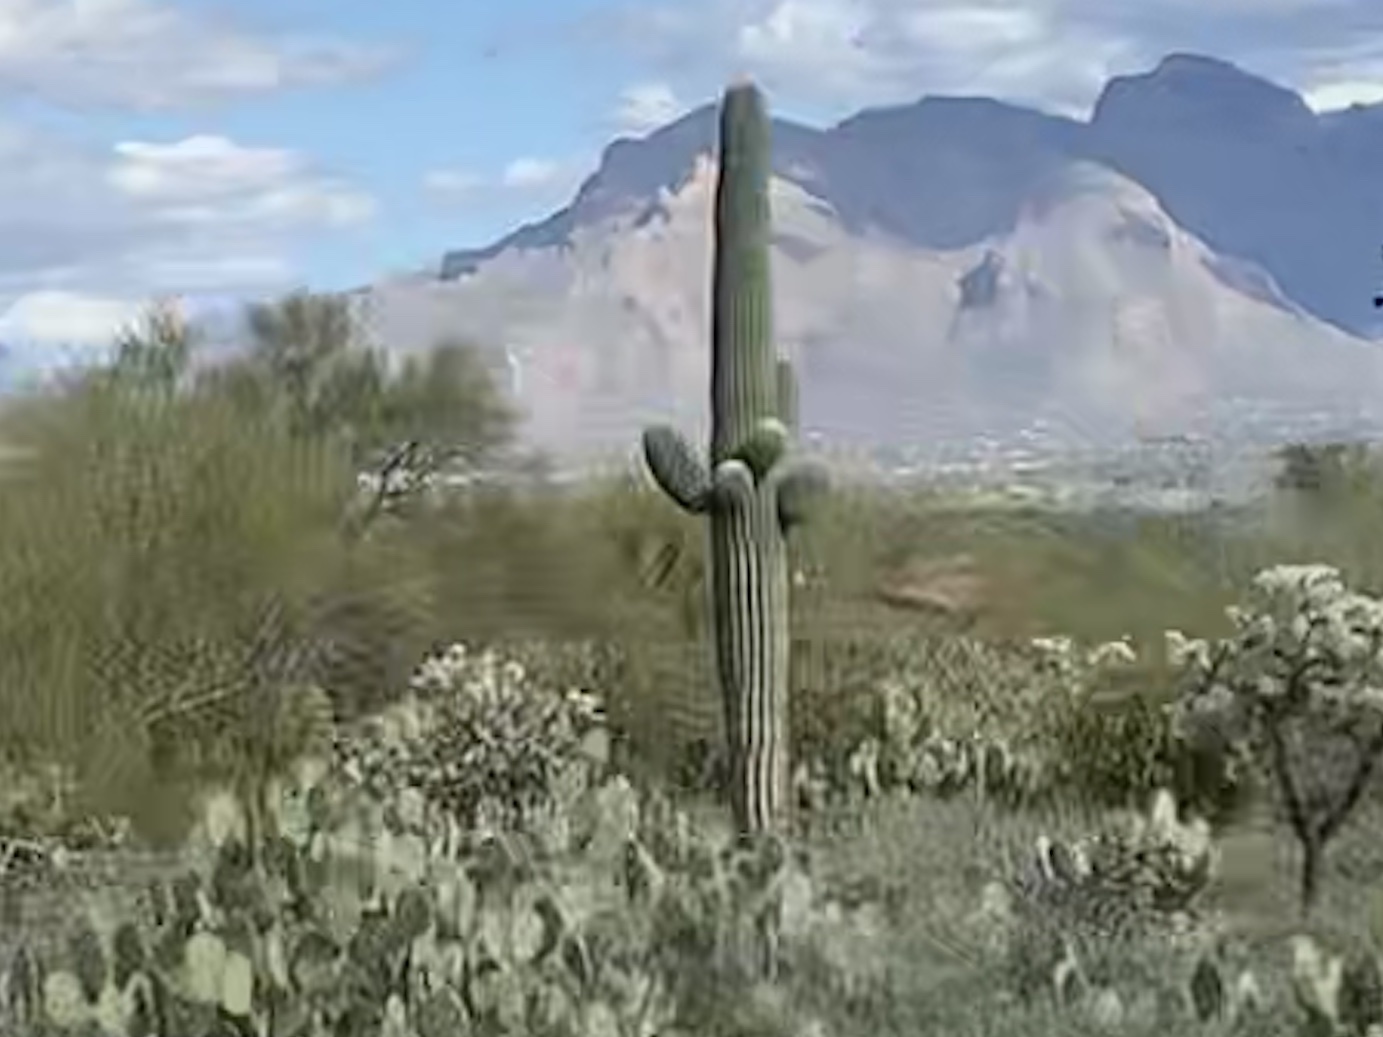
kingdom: Plantae
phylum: Tracheophyta
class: Magnoliopsida
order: Caryophyllales
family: Cactaceae
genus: Carnegiea
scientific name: Carnegiea gigantea
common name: Saguaro
